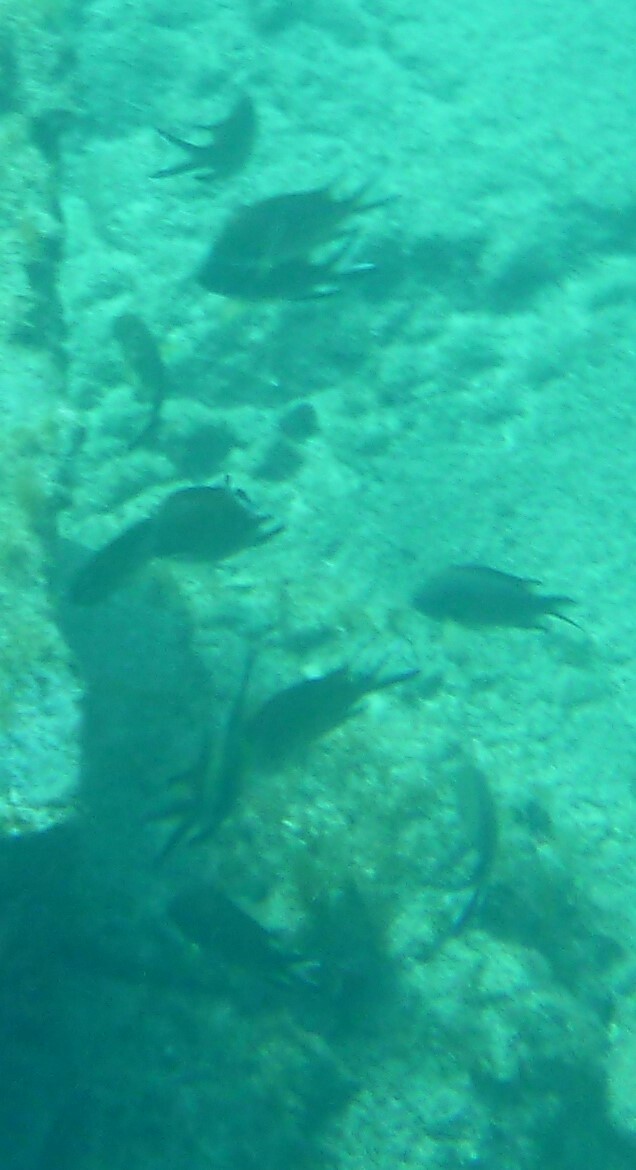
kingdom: Animalia
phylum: Chordata
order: Perciformes
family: Pomacentridae
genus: Chromis
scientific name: Chromis limbata
